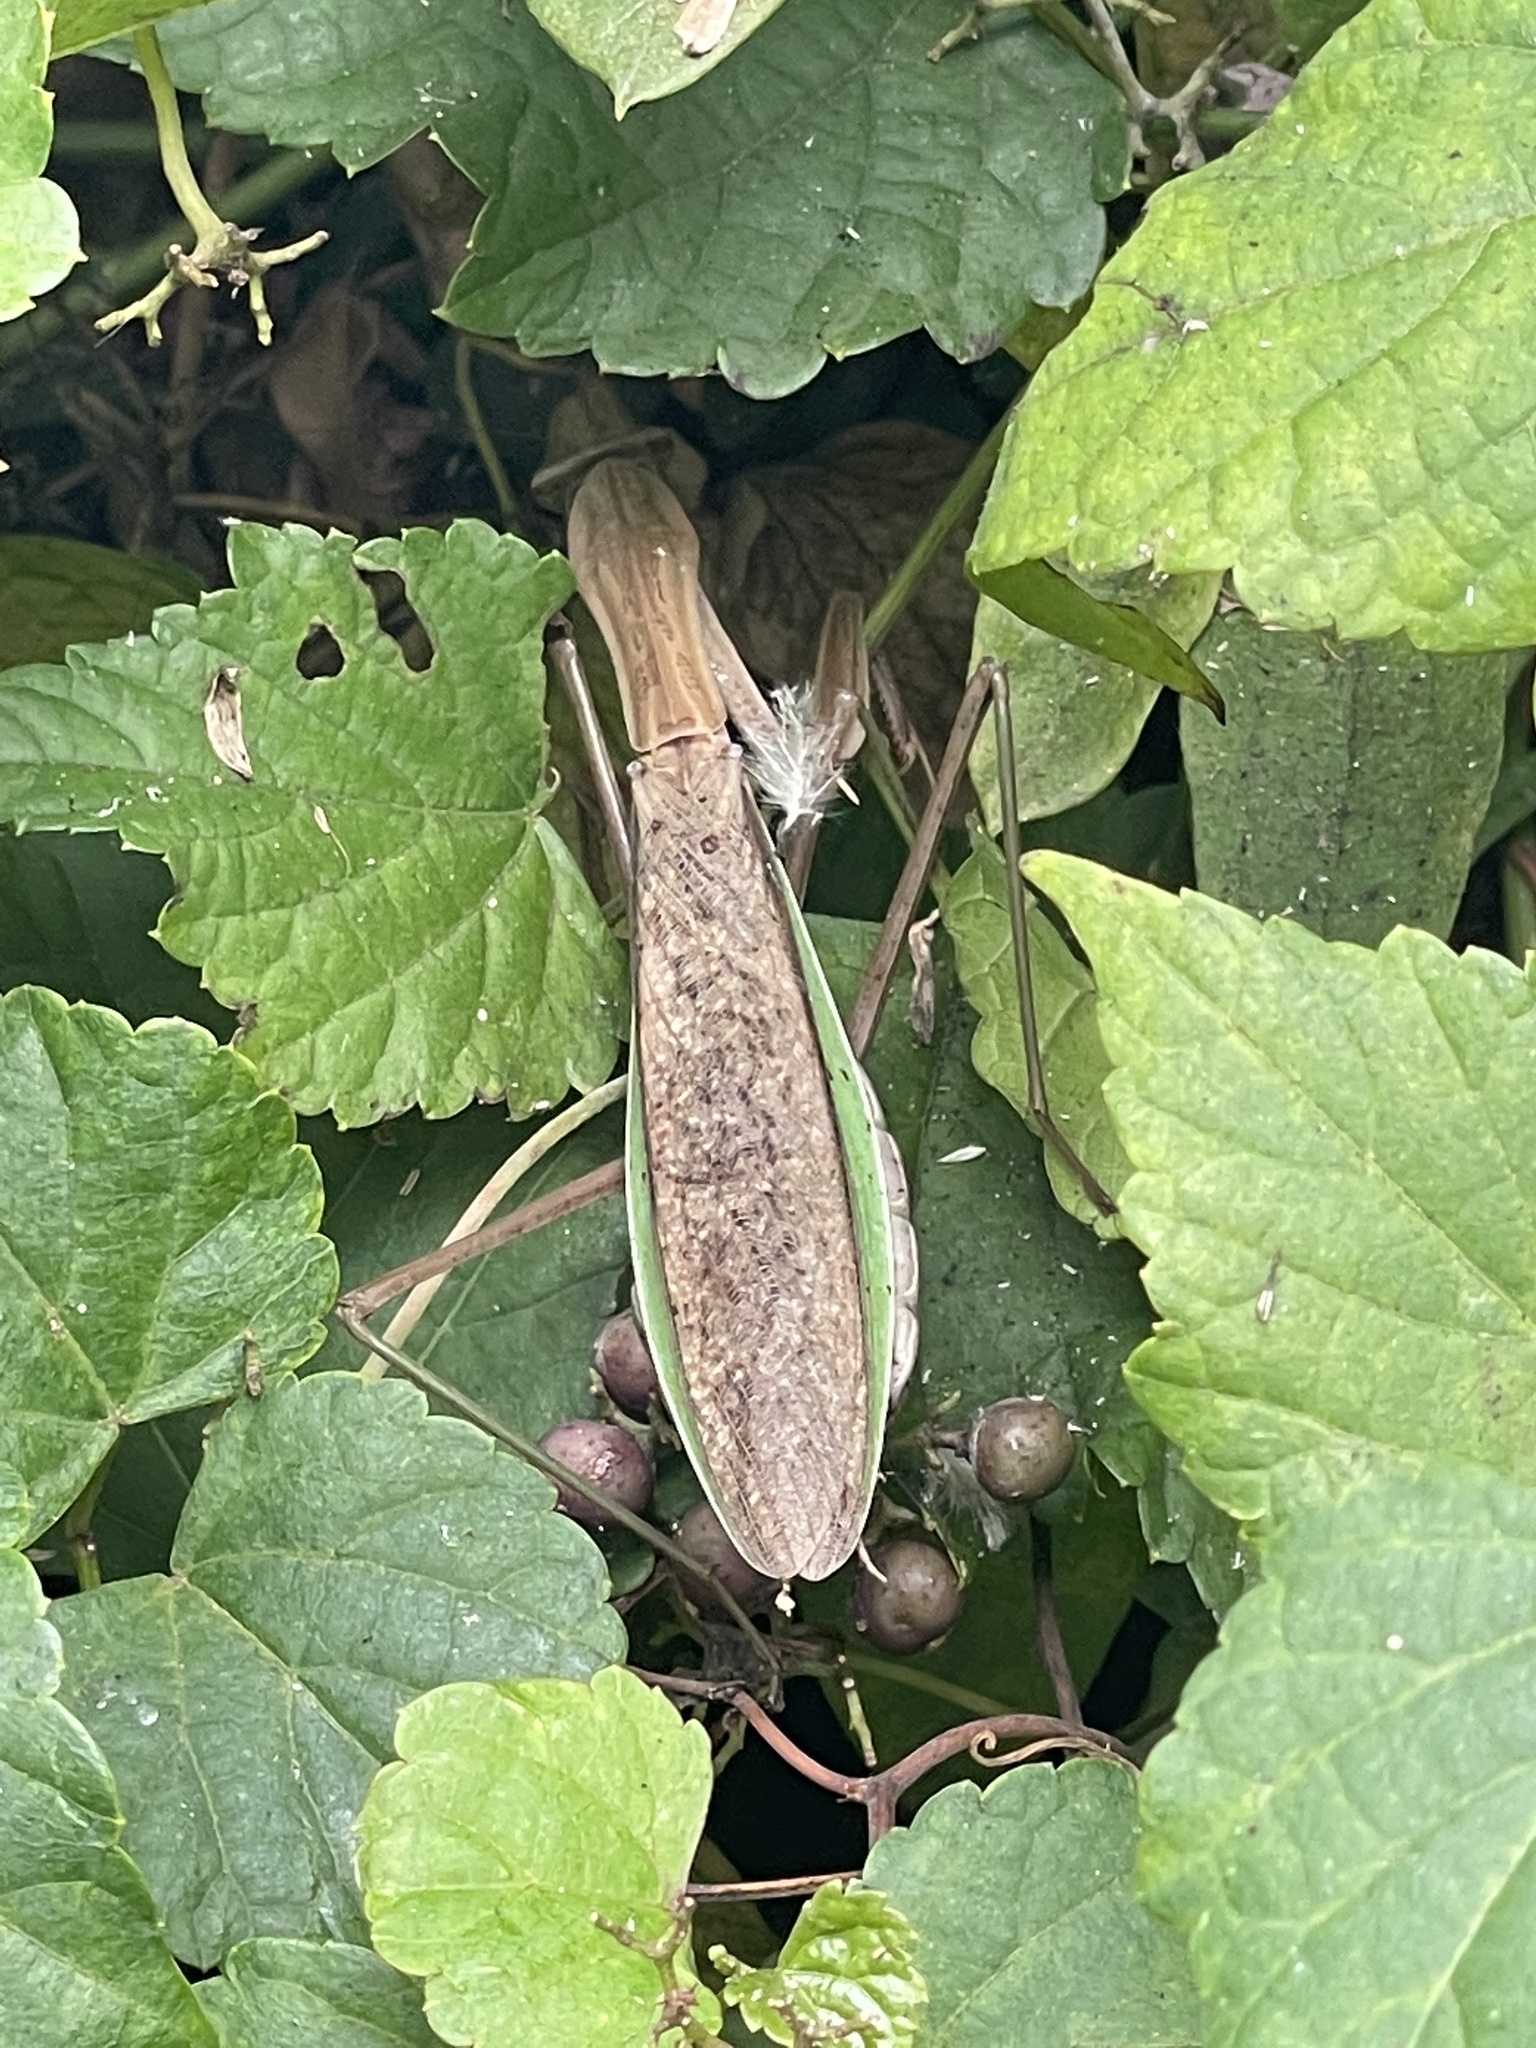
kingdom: Animalia
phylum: Arthropoda
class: Insecta
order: Mantodea
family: Mantidae
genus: Tenodera
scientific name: Tenodera sinensis
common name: Chinese mantis
